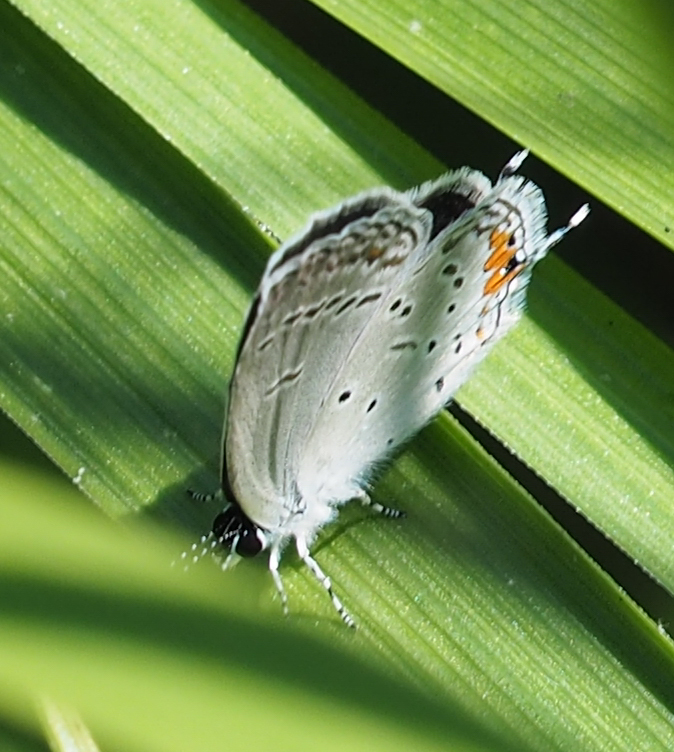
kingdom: Animalia
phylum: Arthropoda
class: Insecta
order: Lepidoptera
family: Lycaenidae
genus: Elkalyce
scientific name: Elkalyce comyntas
